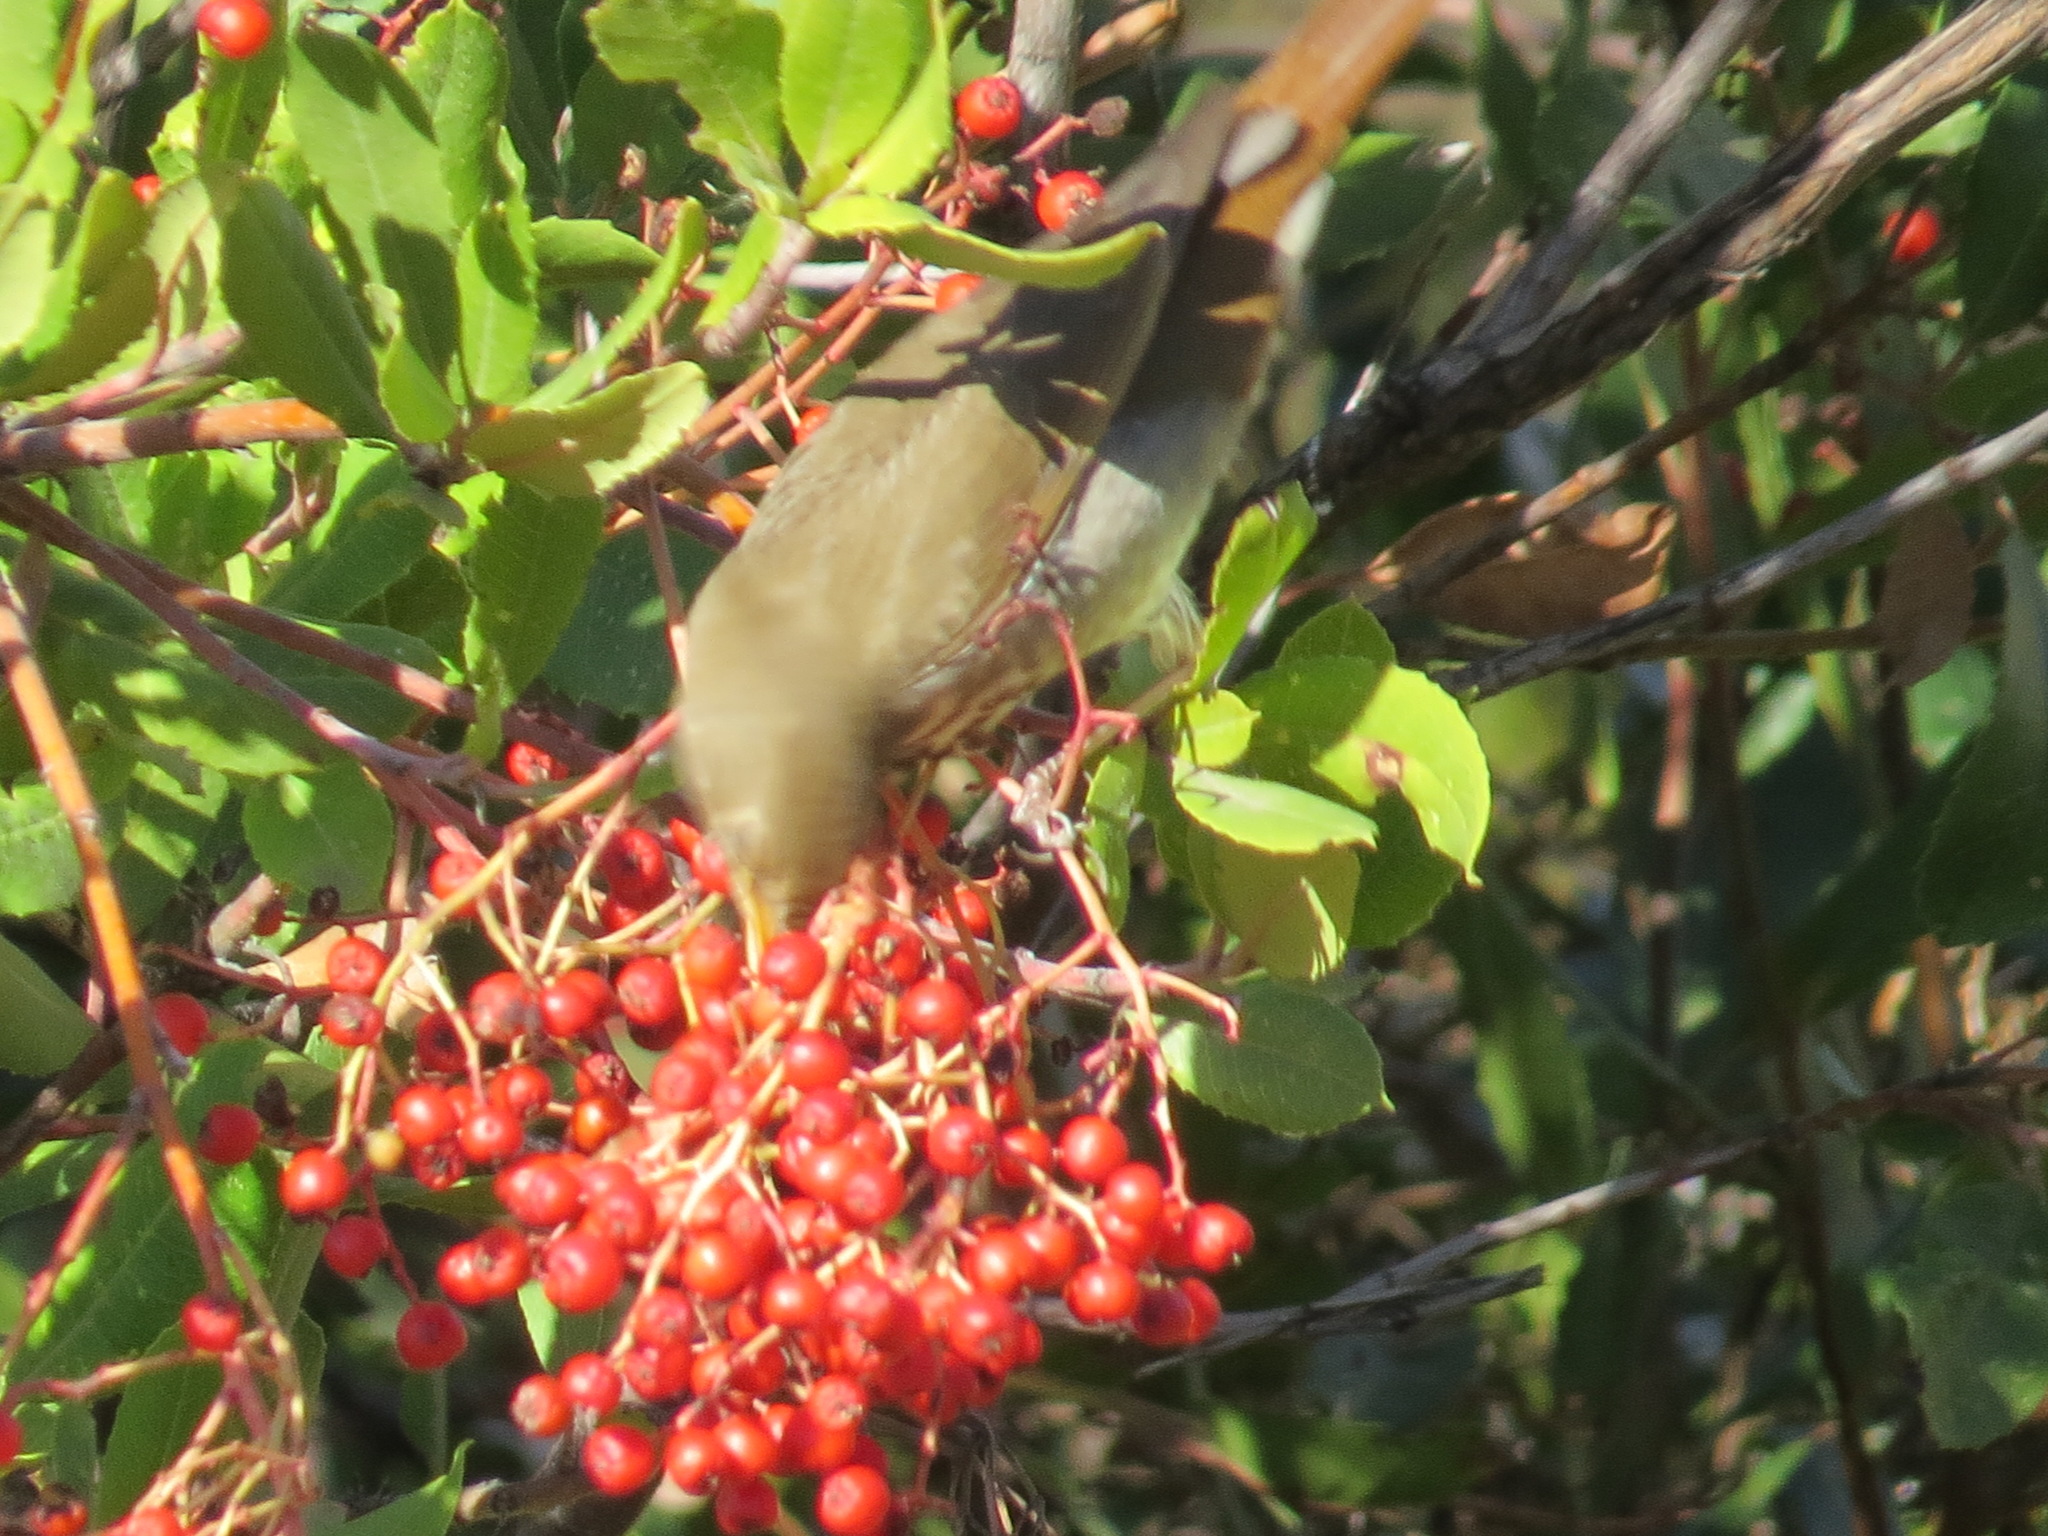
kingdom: Animalia
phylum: Chordata
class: Aves
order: Passeriformes
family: Turdidae
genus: Catharus
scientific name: Catharus guttatus
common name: Hermit thrush
